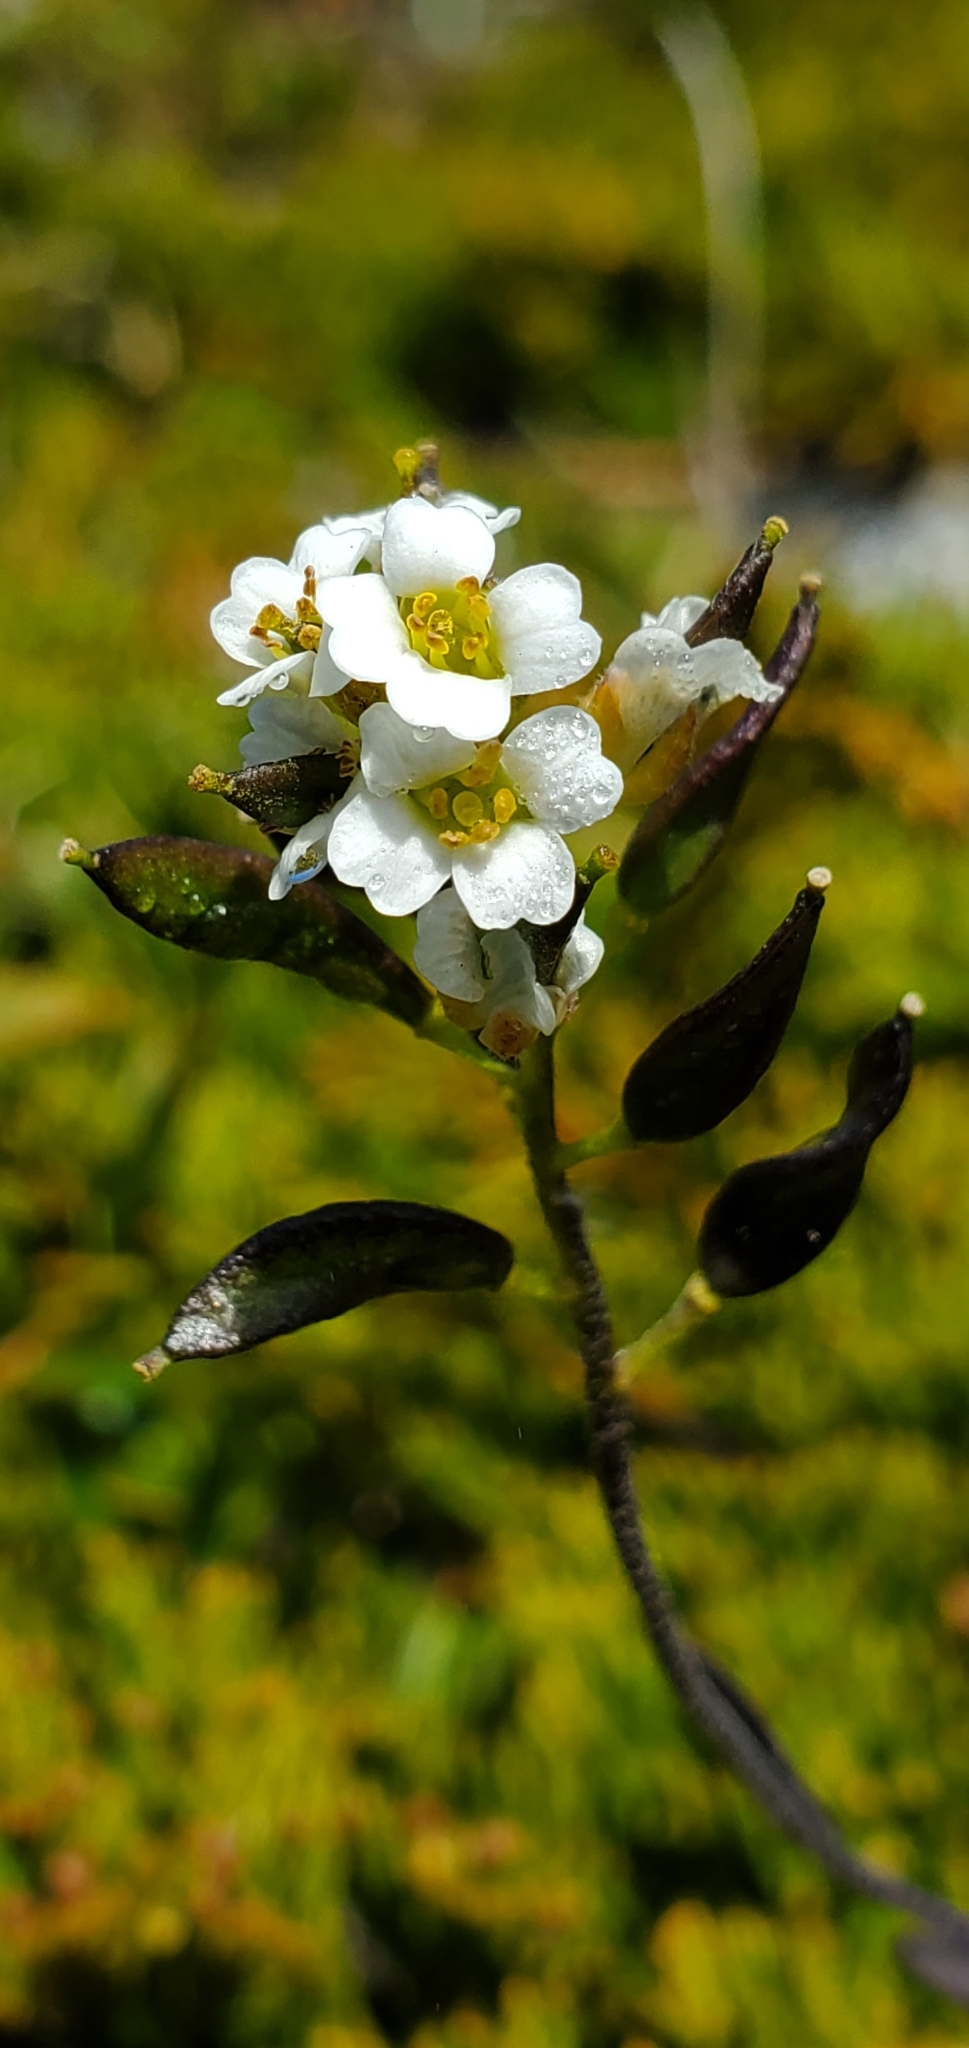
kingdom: Plantae
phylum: Tracheophyta
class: Magnoliopsida
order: Brassicales
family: Brassicaceae
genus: Draba
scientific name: Draba arabisans
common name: Rock draba
